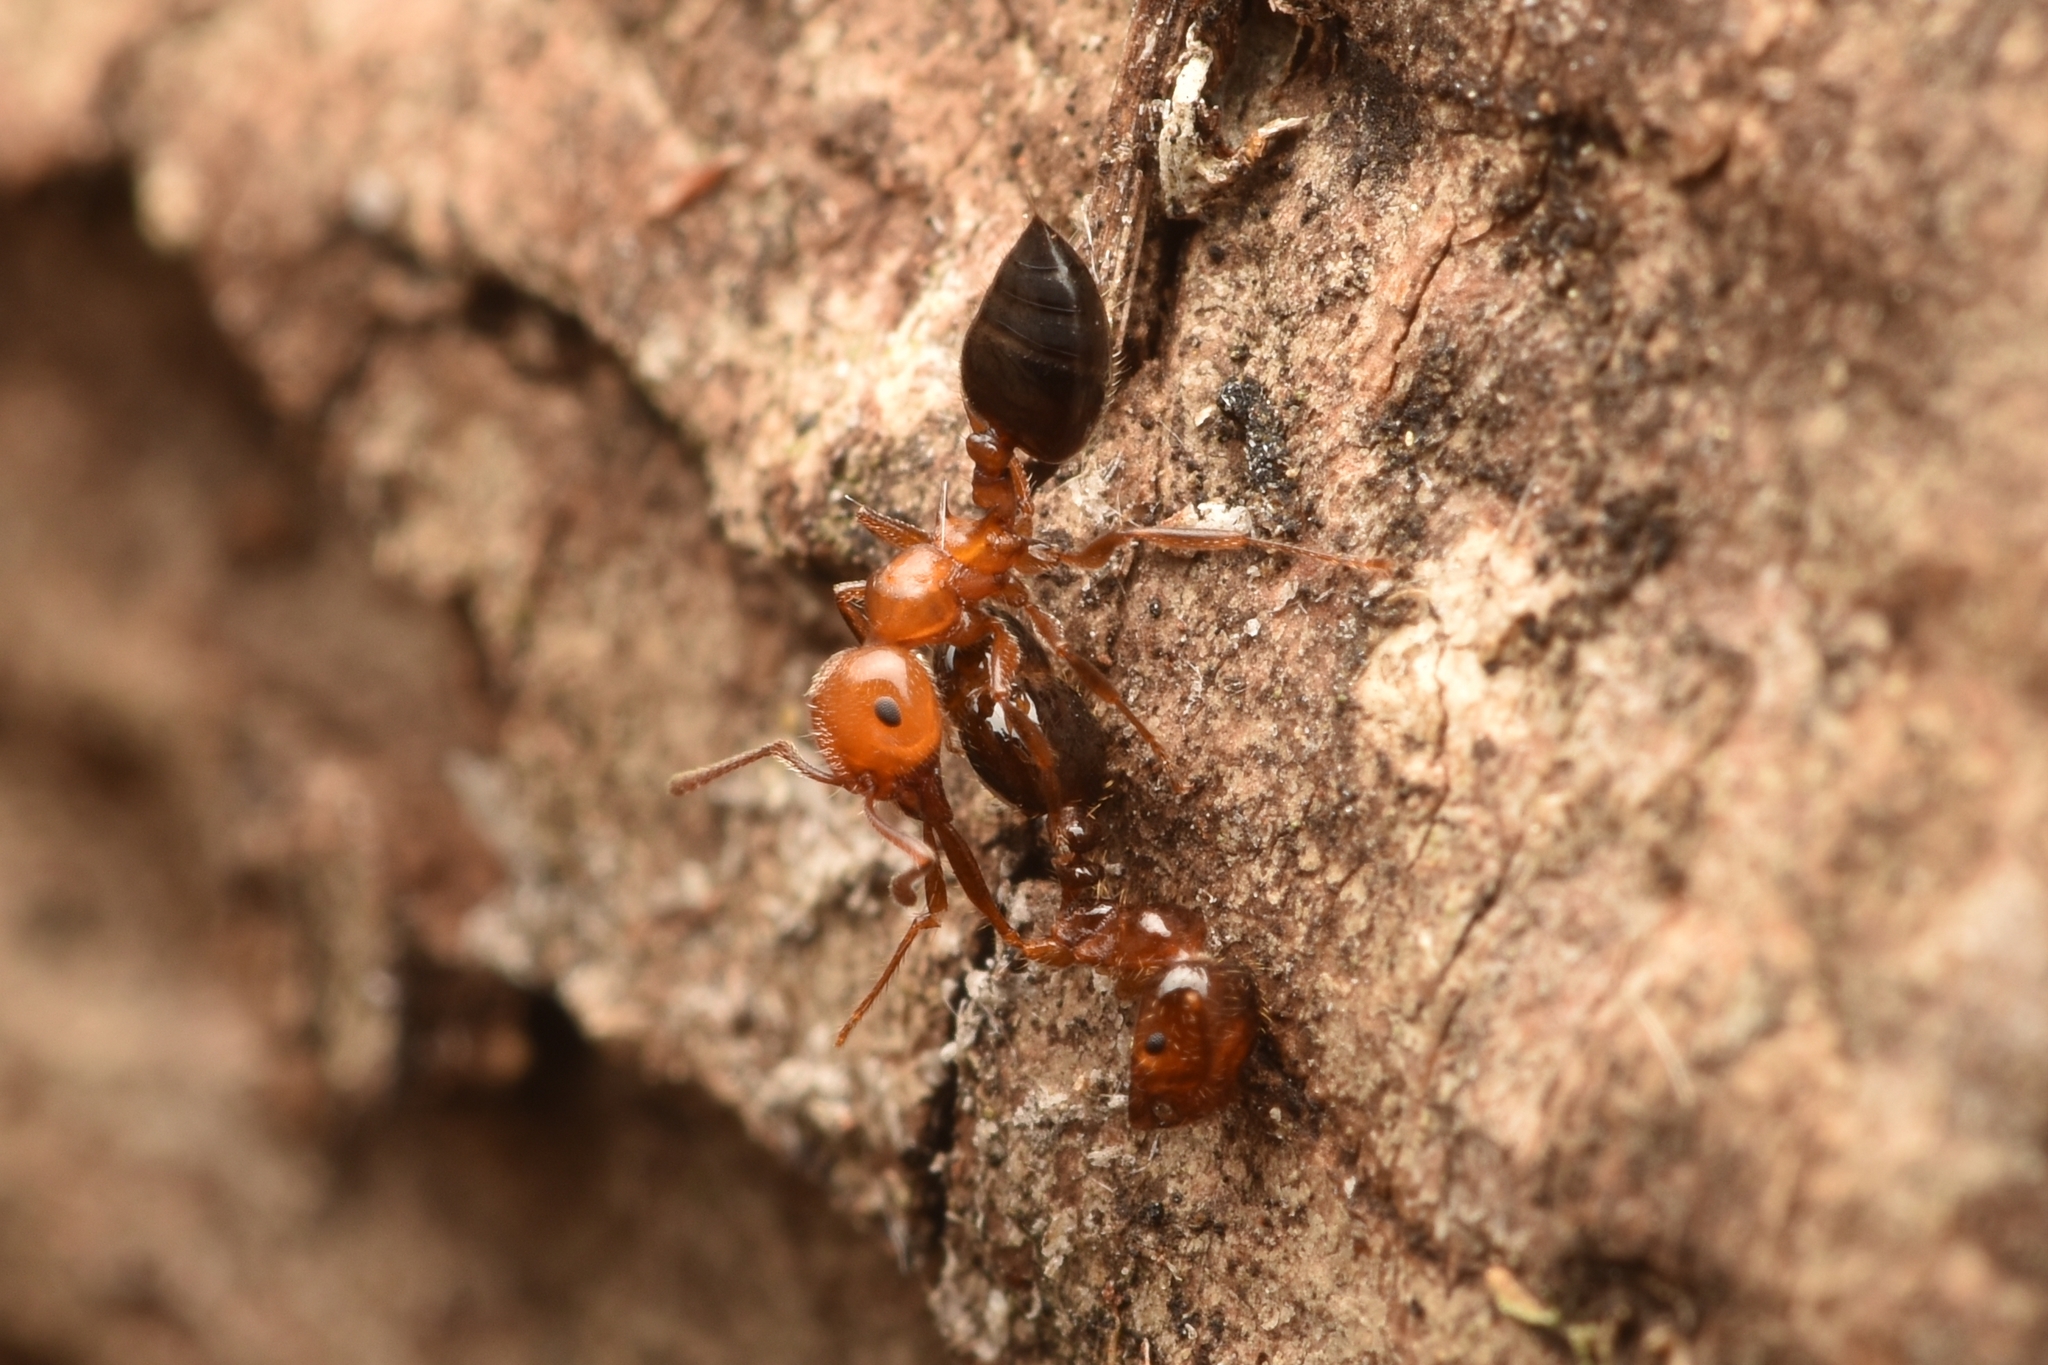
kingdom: Animalia
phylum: Arthropoda
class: Insecta
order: Hymenoptera
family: Formicidae
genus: Crematogaster
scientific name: Crematogaster laeviuscula
